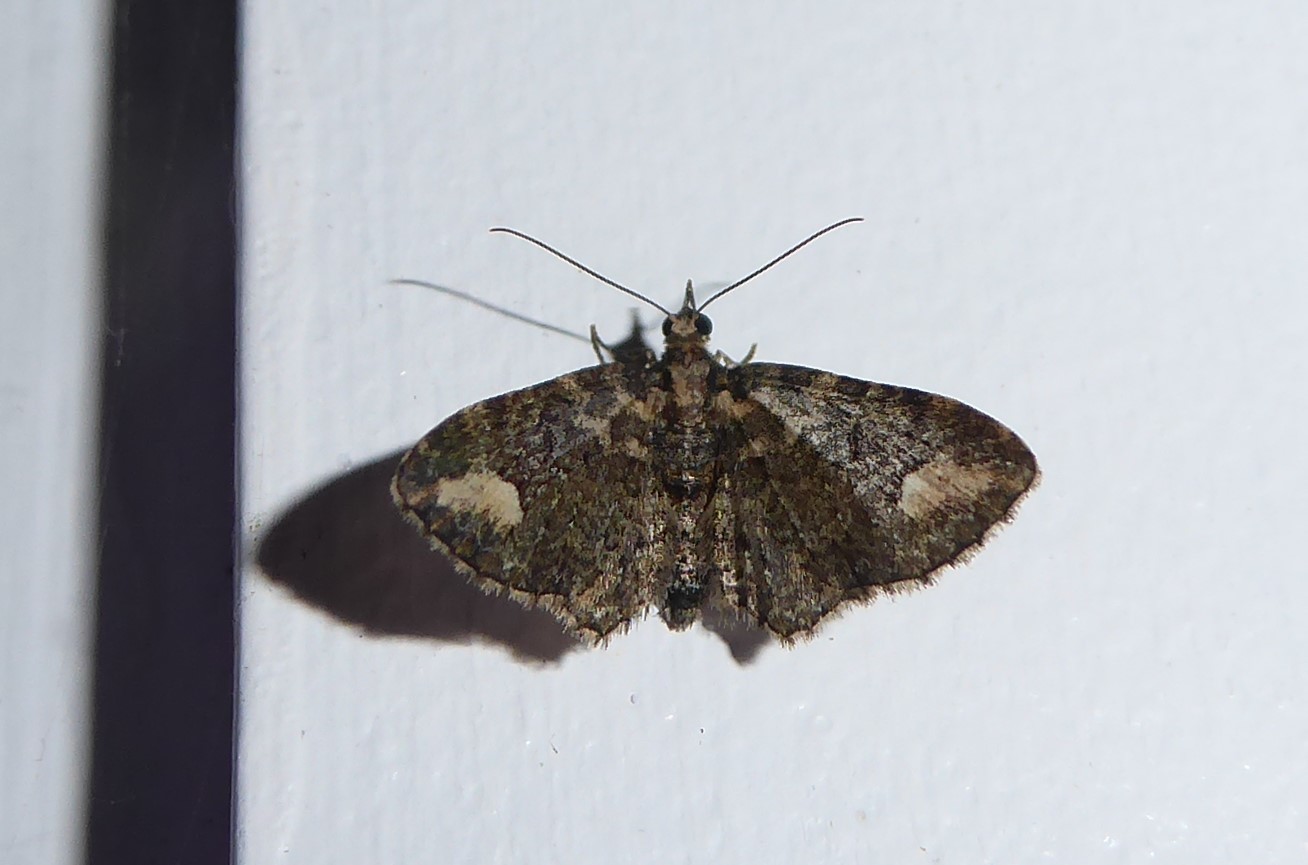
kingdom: Animalia
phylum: Arthropoda
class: Insecta
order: Lepidoptera
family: Geometridae
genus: Pasiphilodes
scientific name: Pasiphilodes testulata
